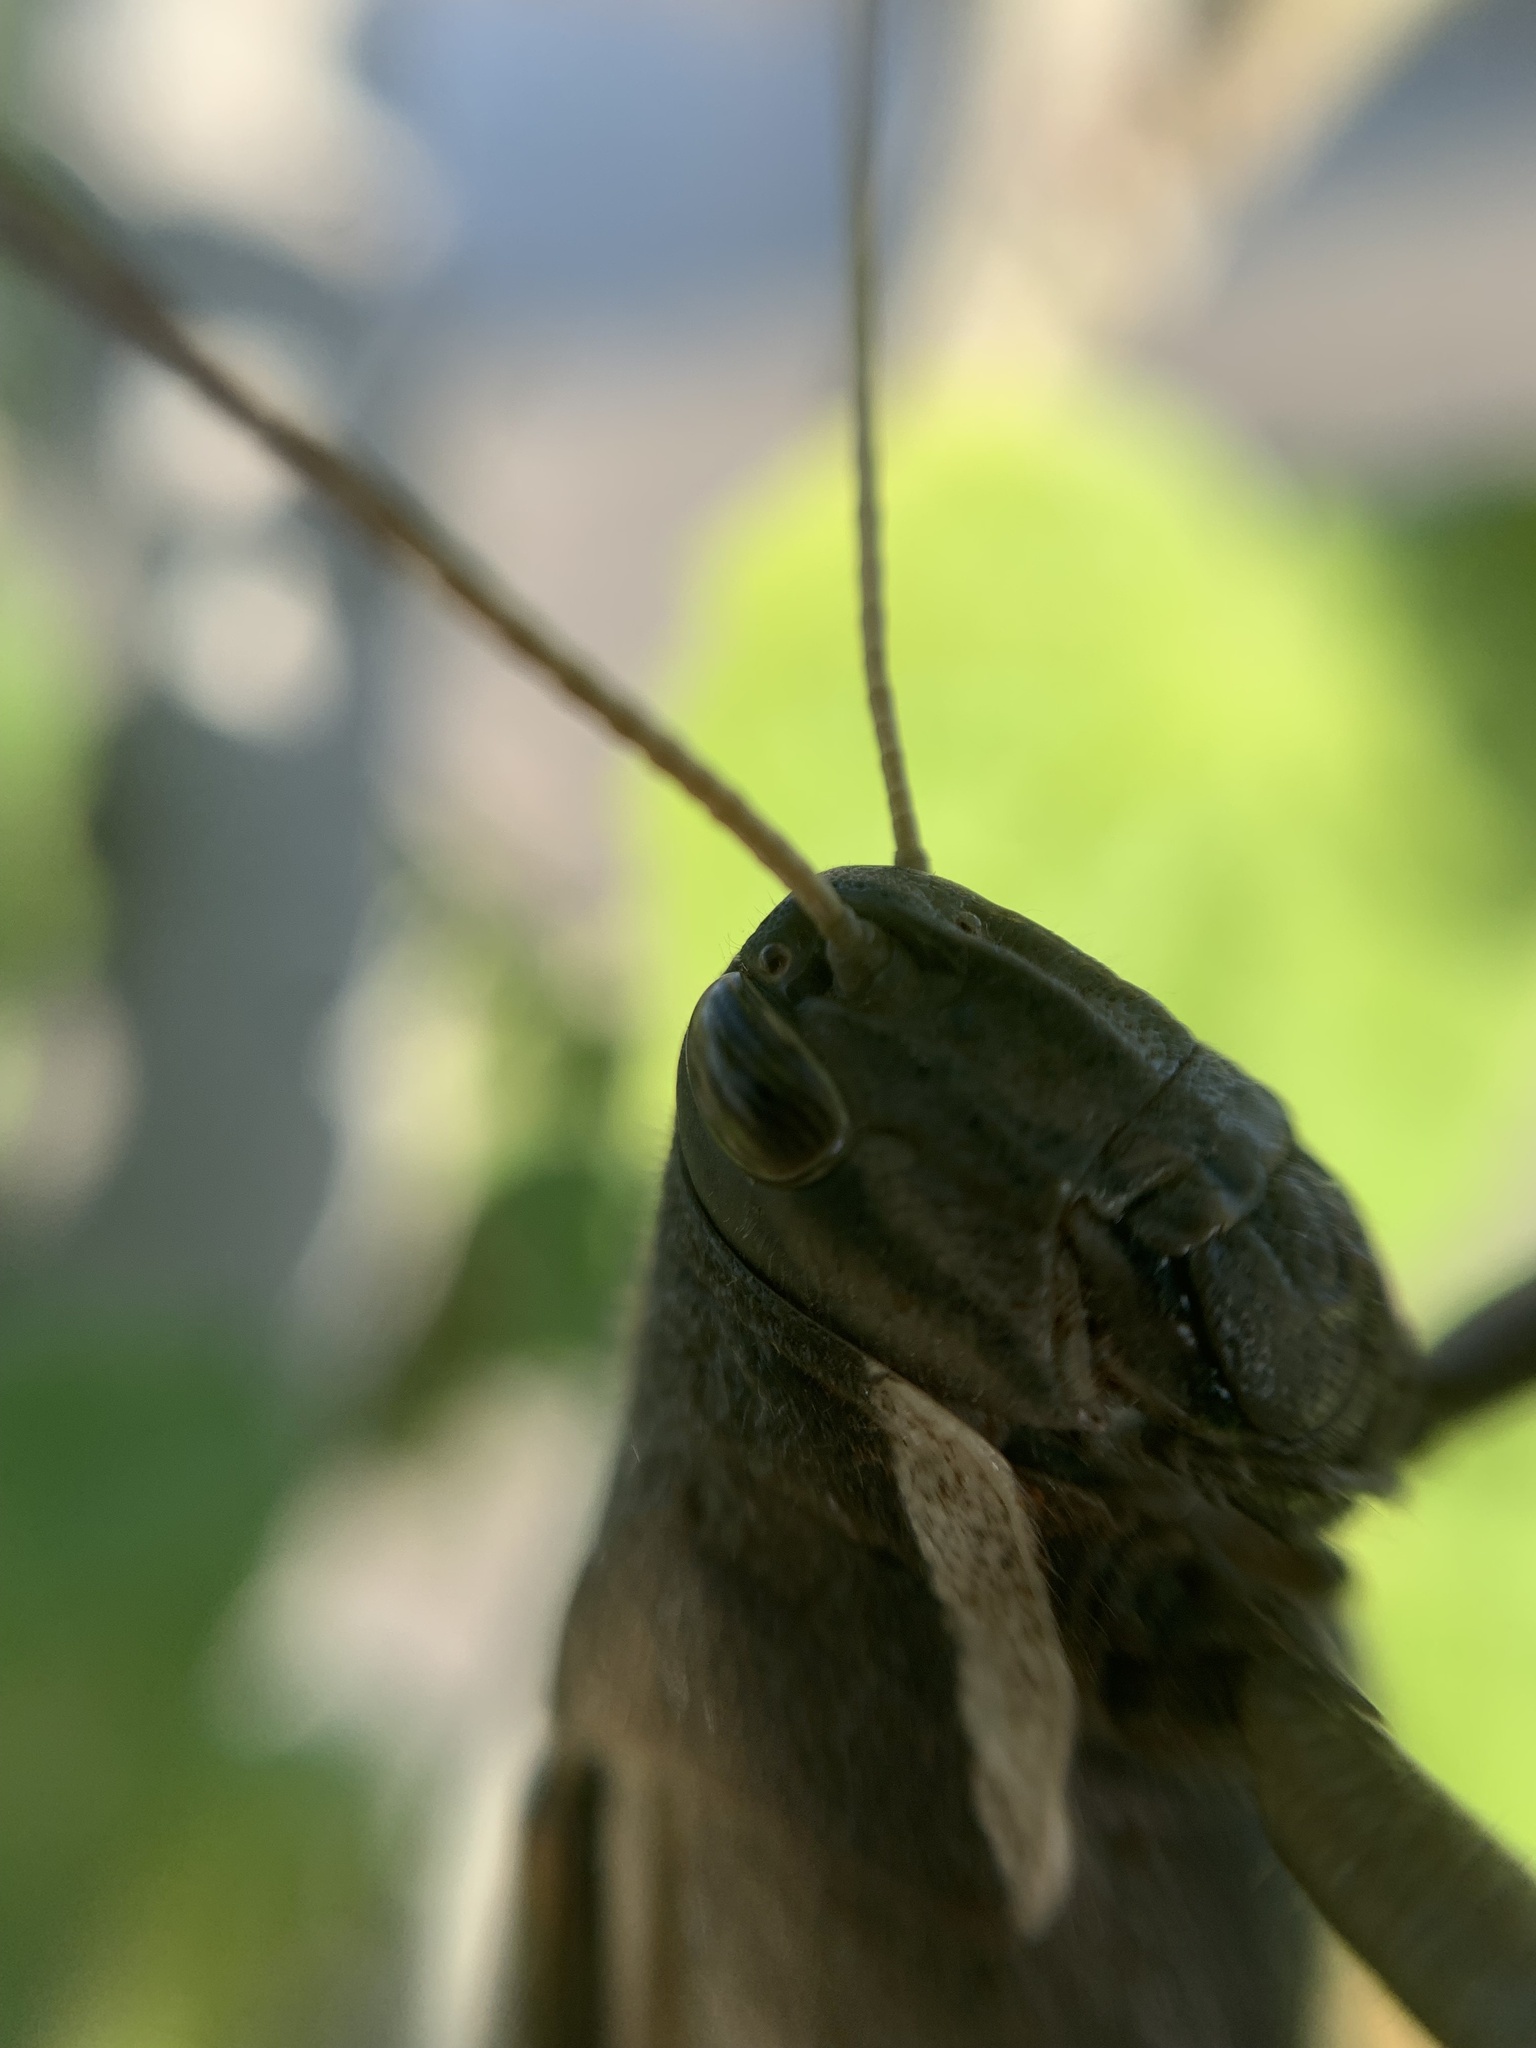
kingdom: Animalia
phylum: Arthropoda
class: Insecta
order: Orthoptera
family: Acrididae
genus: Schistocerca
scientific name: Schistocerca flavofasciata
